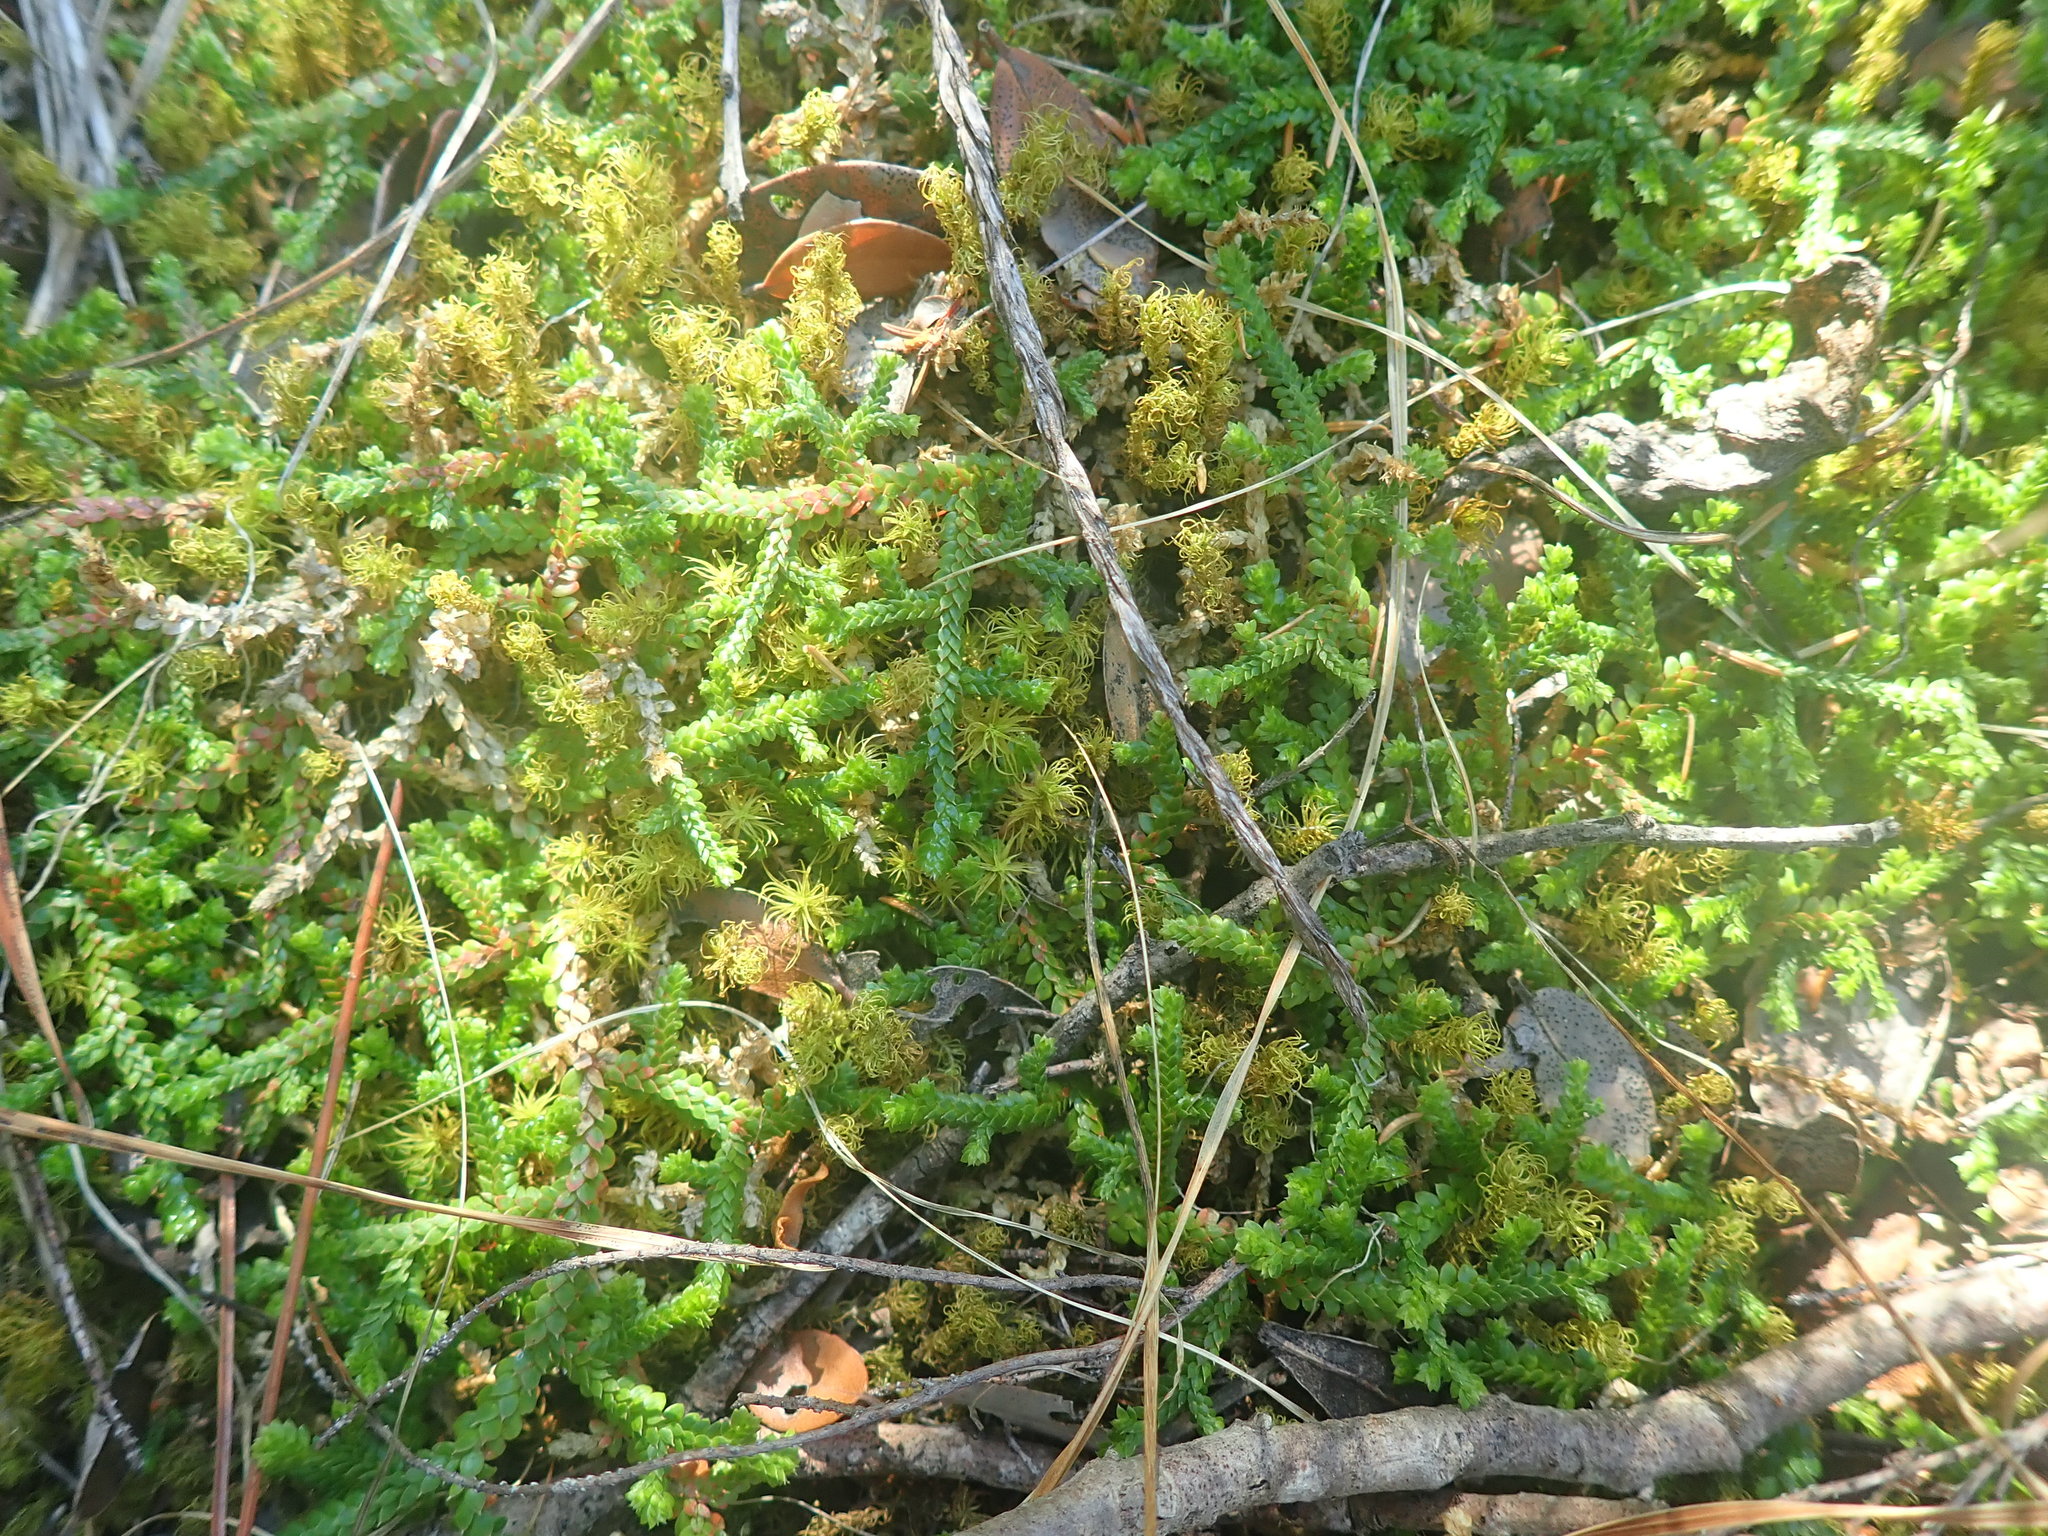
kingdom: Plantae
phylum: Tracheophyta
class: Lycopodiopsida
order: Selaginellales
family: Selaginellaceae
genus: Selaginella
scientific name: Selaginella denticulata
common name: Toothed-leaved clubmoss
